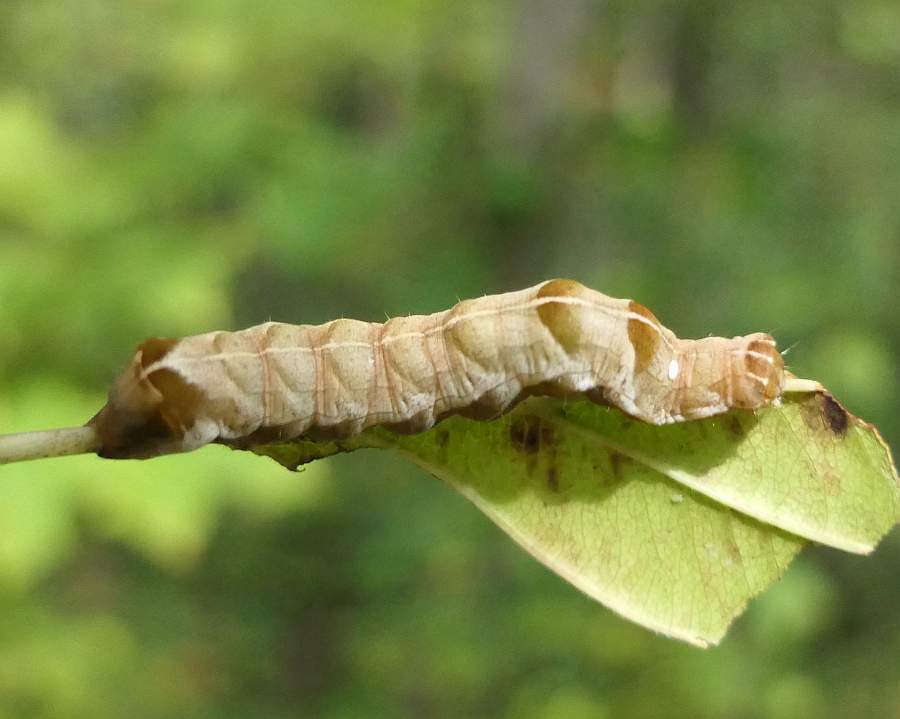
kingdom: Animalia
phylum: Arthropoda
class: Insecta
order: Lepidoptera
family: Noctuidae
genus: Melanchra
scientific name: Melanchra adjuncta
